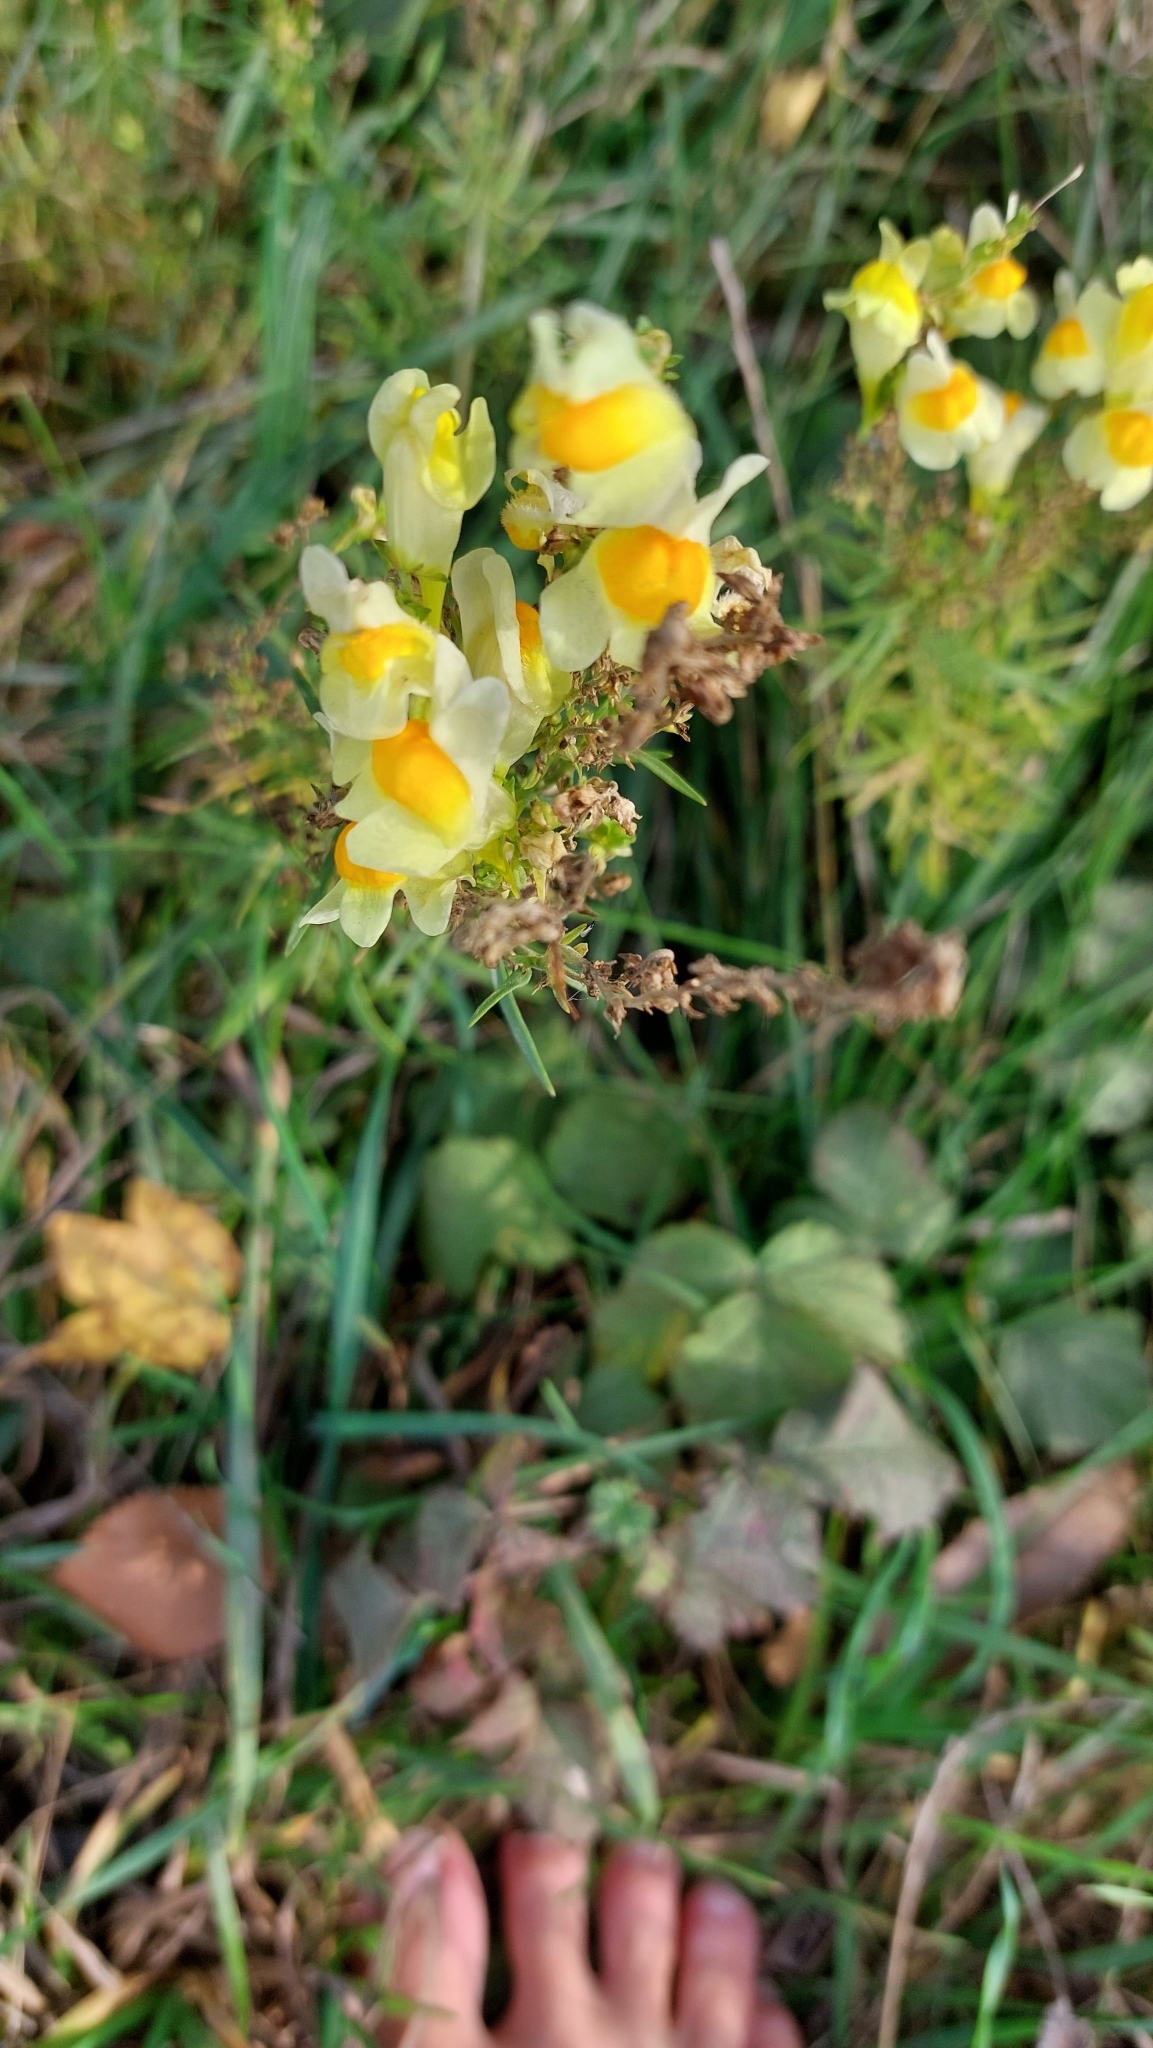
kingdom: Plantae
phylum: Tracheophyta
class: Magnoliopsida
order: Lamiales
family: Plantaginaceae
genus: Linaria
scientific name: Linaria vulgaris
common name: Butter and eggs
